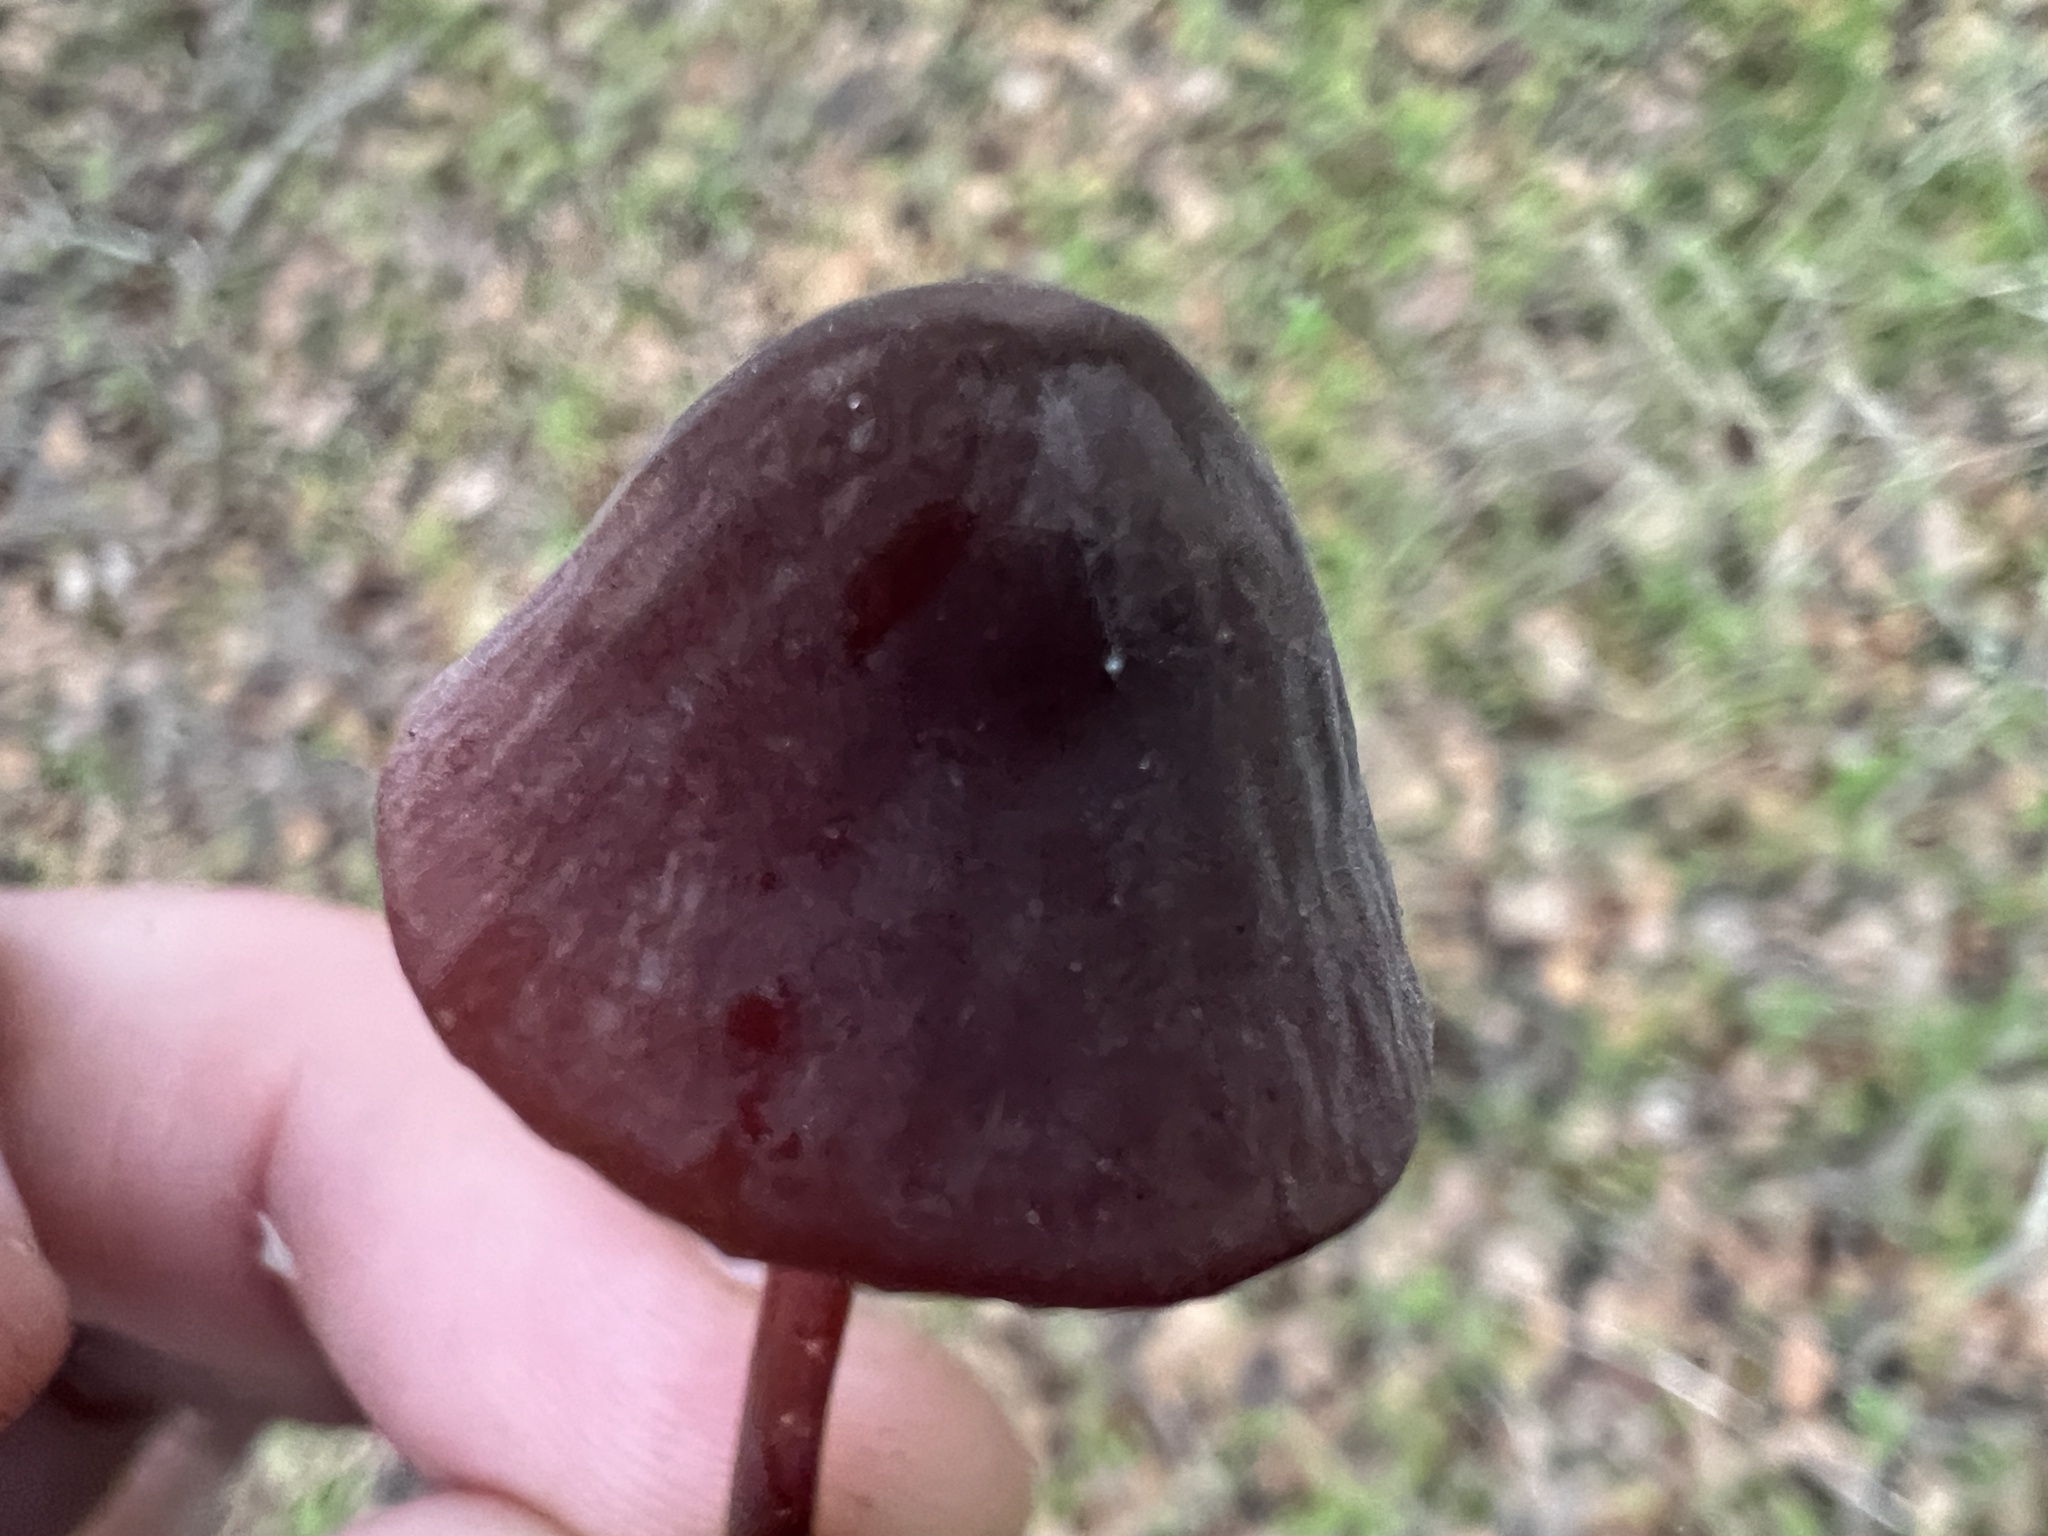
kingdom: Fungi
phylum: Basidiomycota
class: Agaricomycetes
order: Agaricales
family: Marasmiaceae
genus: Marasmius
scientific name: Marasmius plicatulus
